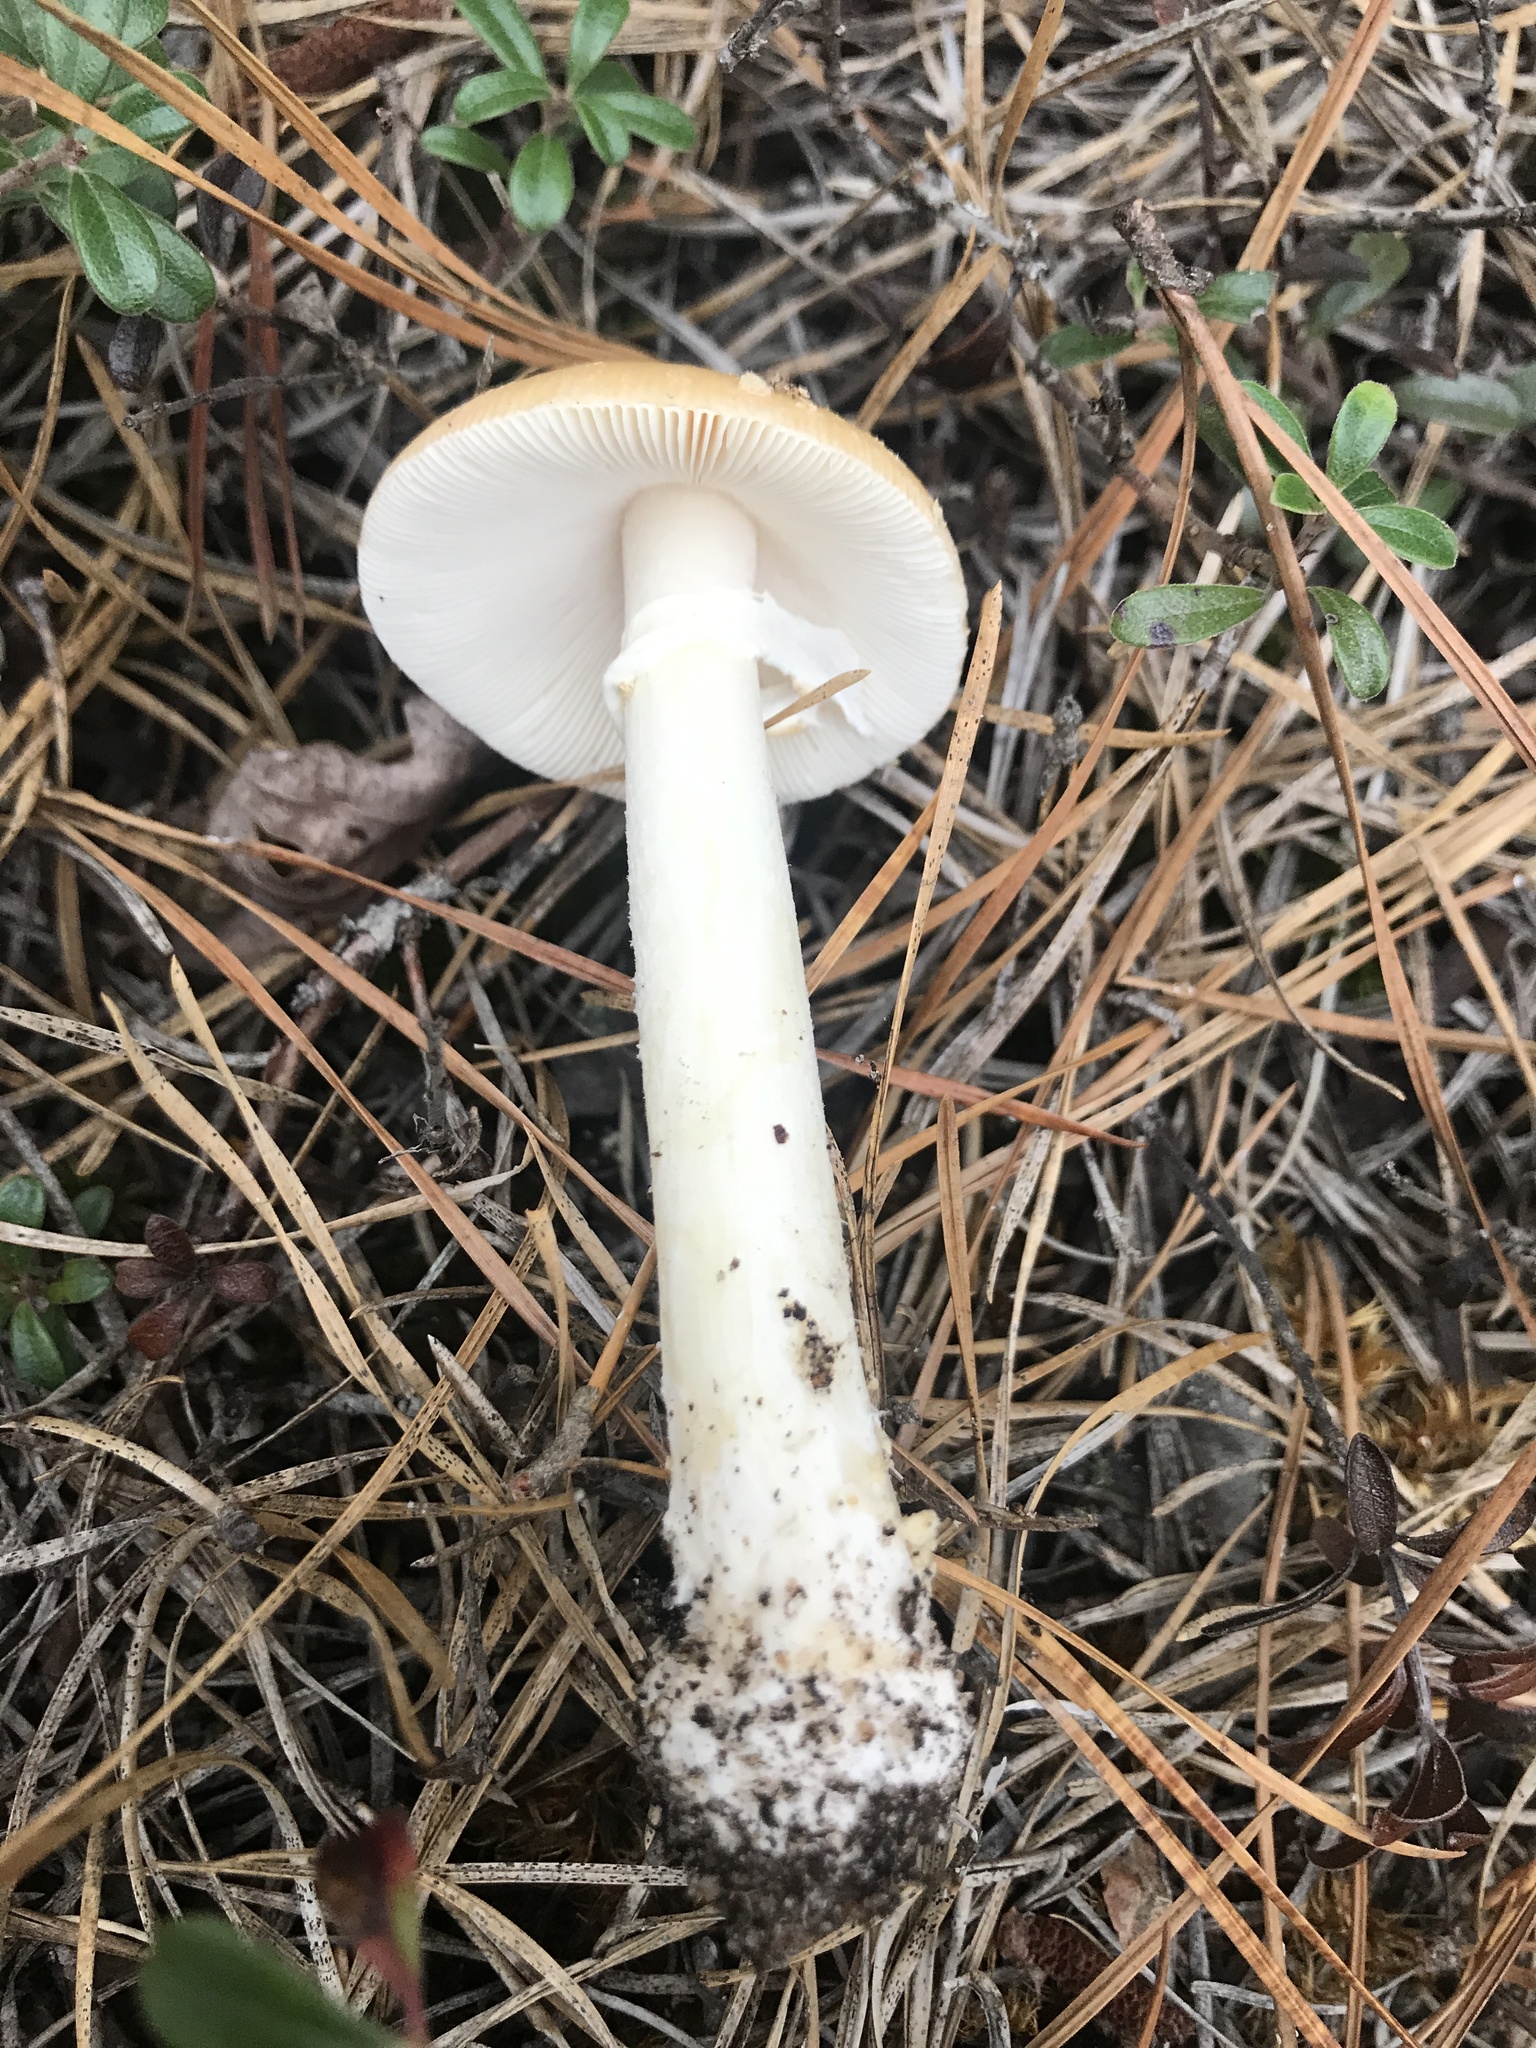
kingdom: Fungi
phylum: Basidiomycota
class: Agaricomycetes
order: Agaricales
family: Amanitaceae
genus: Amanita
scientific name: Amanita crenulata
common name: Poison champagne amanita
